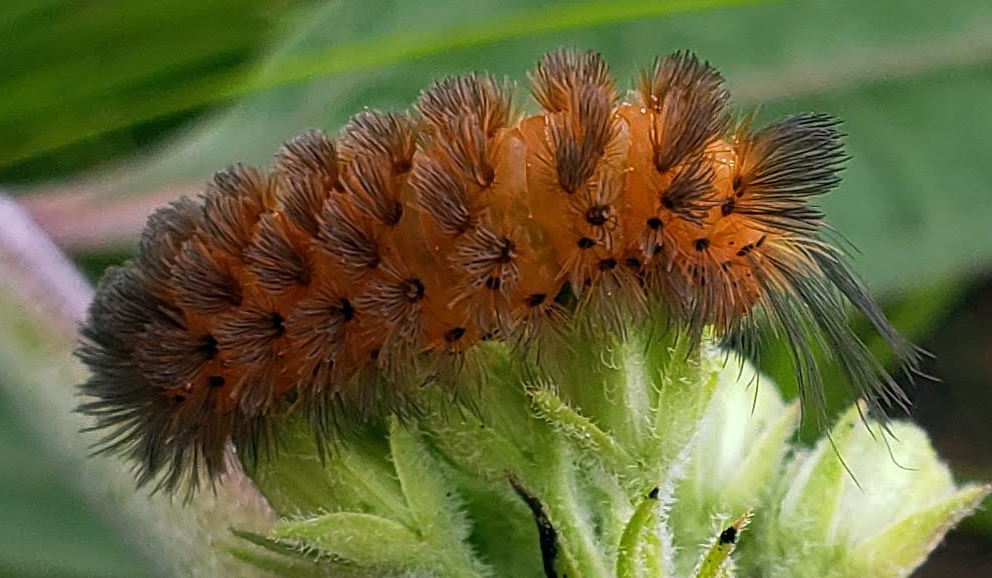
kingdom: Animalia
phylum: Arthropoda
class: Insecta
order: Lepidoptera
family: Erebidae
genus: Cycnia
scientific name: Cycnia collaris
